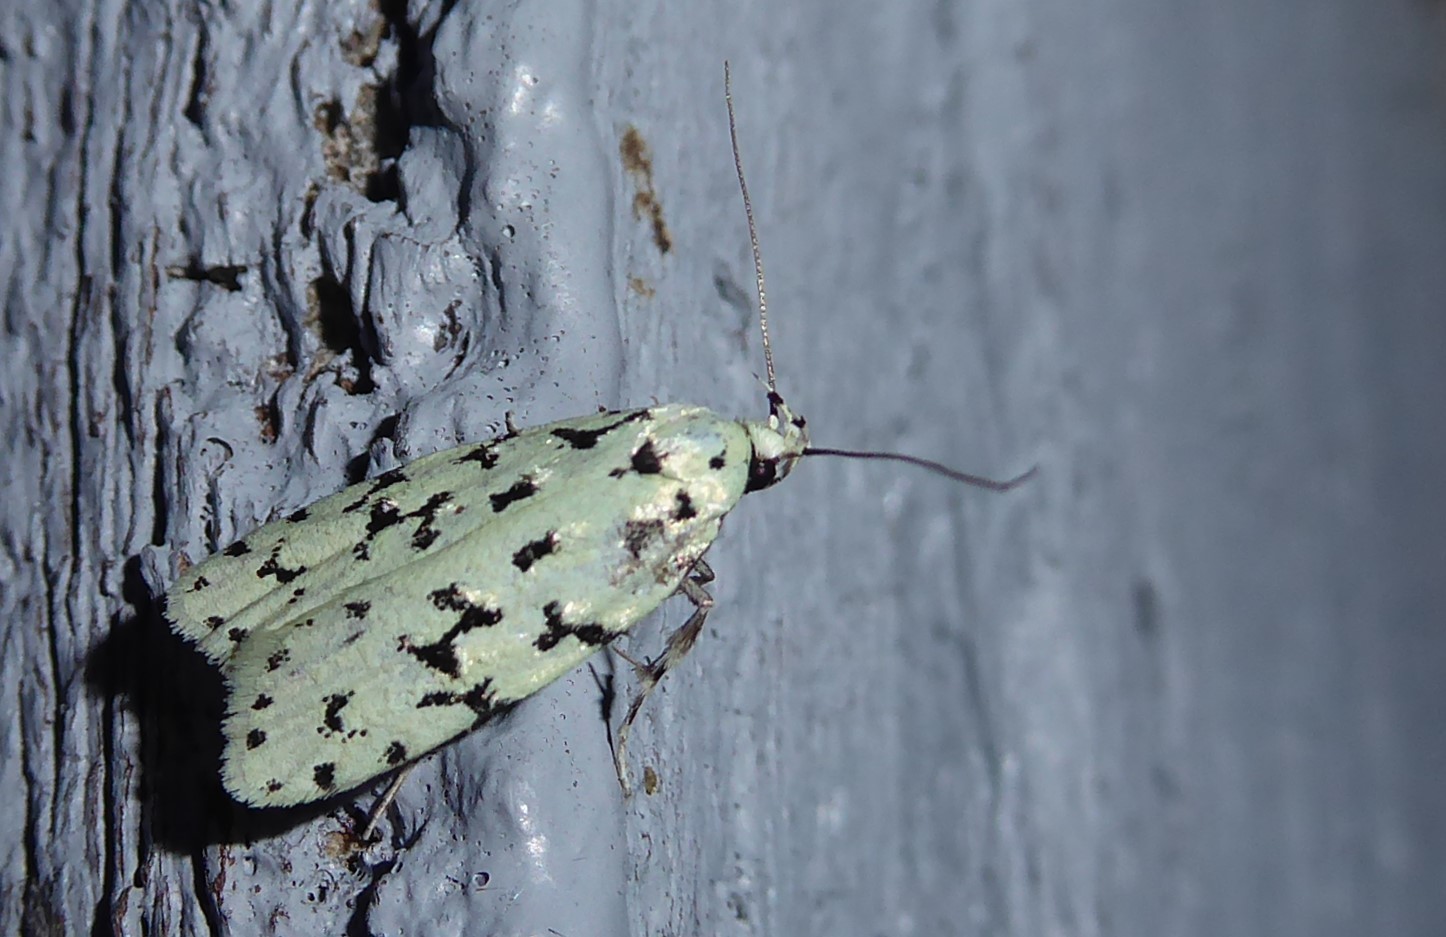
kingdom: Animalia
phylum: Arthropoda
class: Insecta
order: Lepidoptera
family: Oecophoridae
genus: Izatha
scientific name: Izatha huttoni
